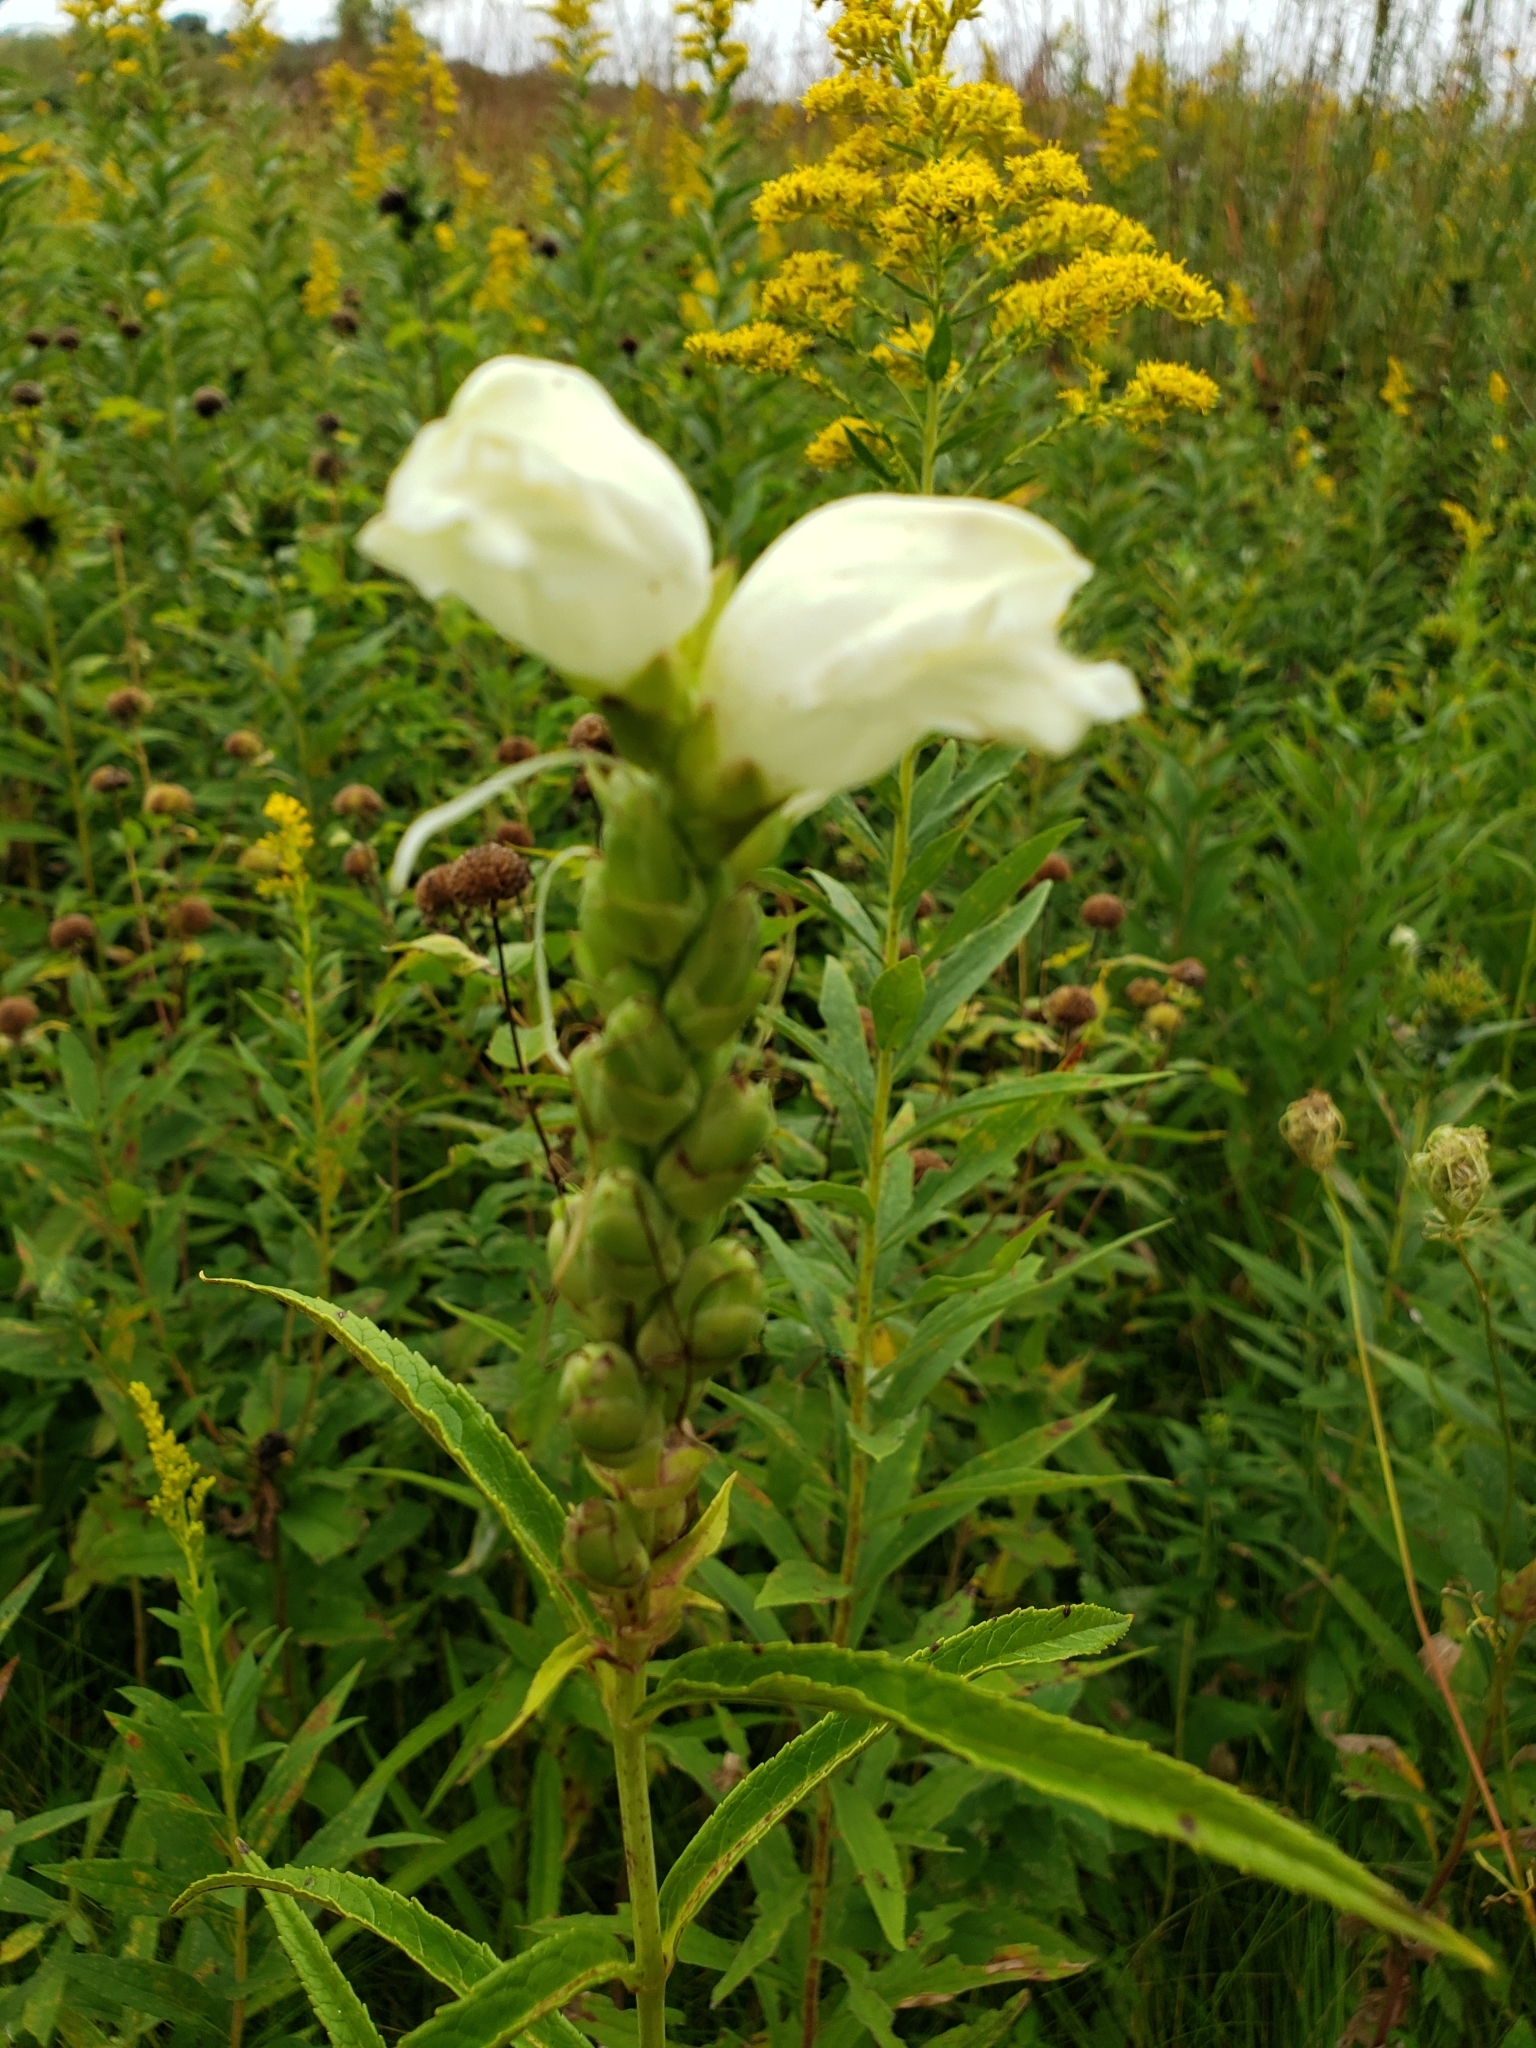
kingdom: Plantae
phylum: Tracheophyta
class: Magnoliopsida
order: Lamiales
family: Plantaginaceae
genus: Chelone
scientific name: Chelone glabra
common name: Snakehead
